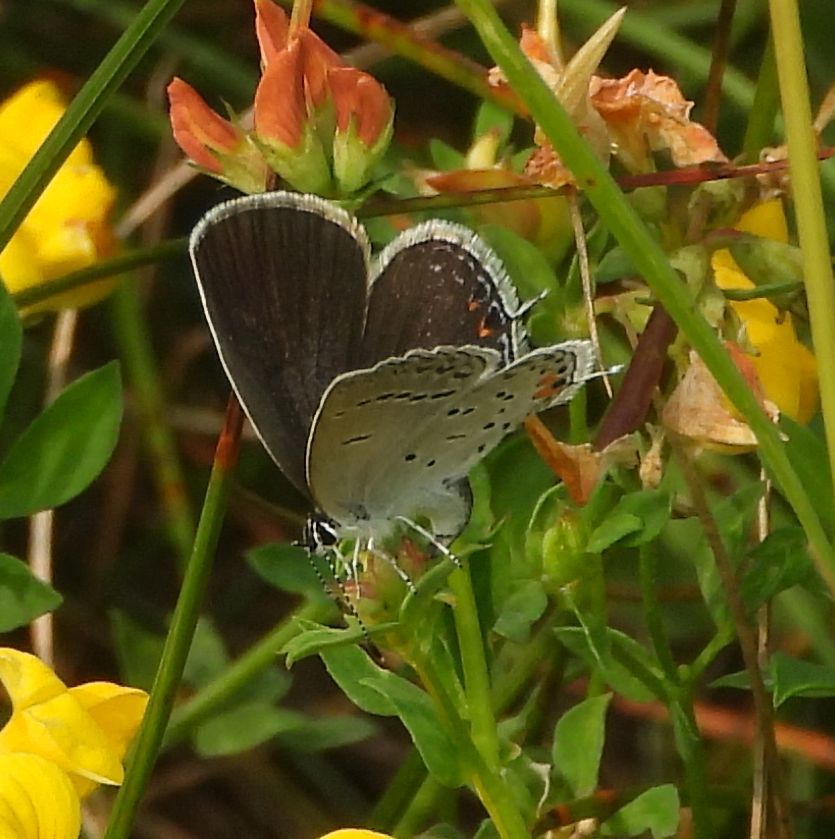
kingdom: Animalia
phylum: Arthropoda
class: Insecta
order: Lepidoptera
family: Lycaenidae
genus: Elkalyce
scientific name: Elkalyce comyntas
